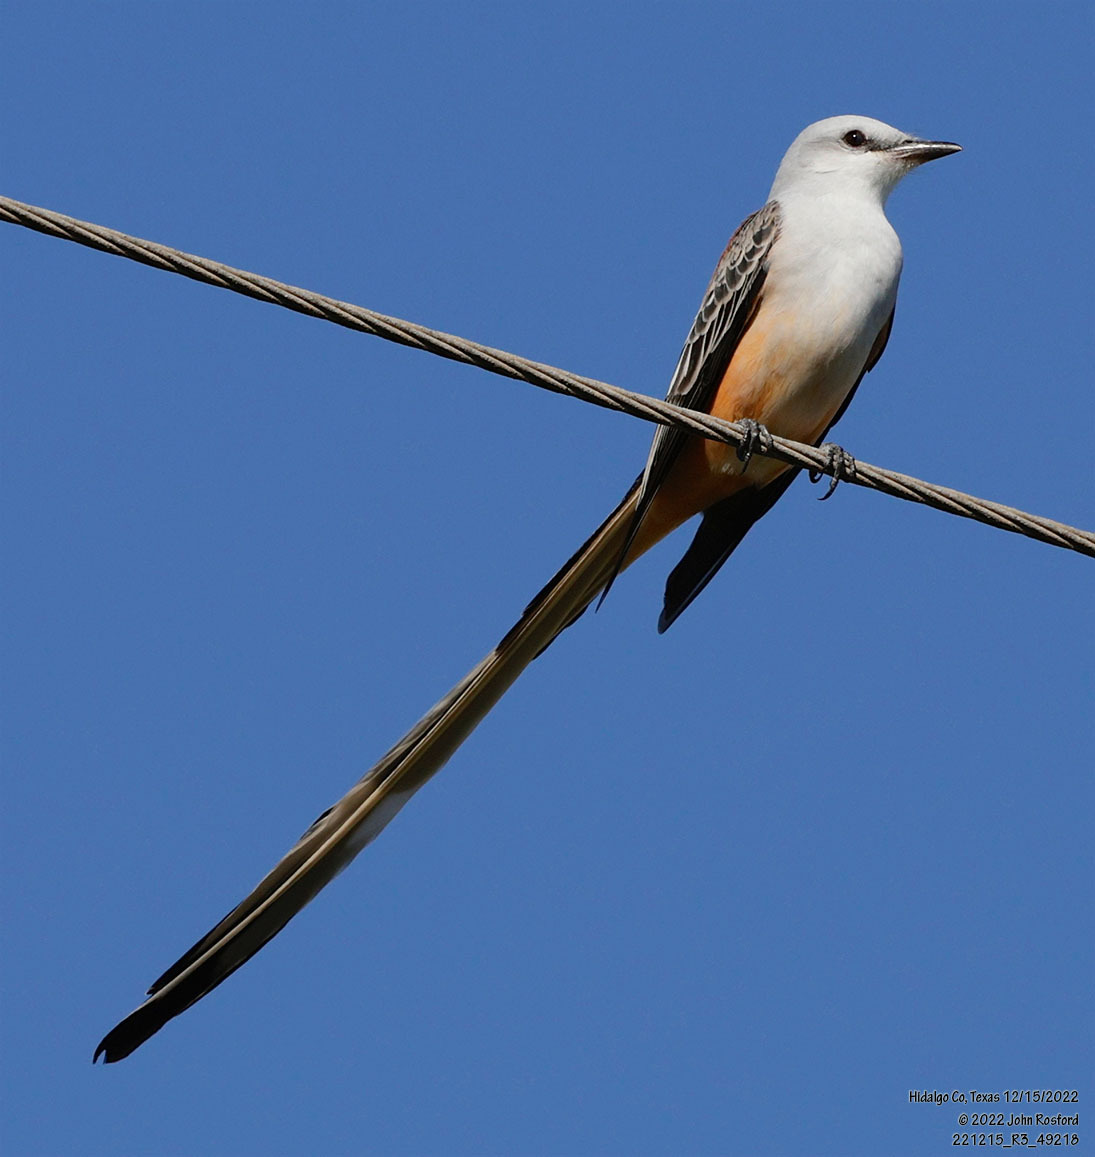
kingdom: Animalia
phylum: Chordata
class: Aves
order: Passeriformes
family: Tyrannidae
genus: Tyrannus
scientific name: Tyrannus forficatus
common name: Scissor-tailed flycatcher
